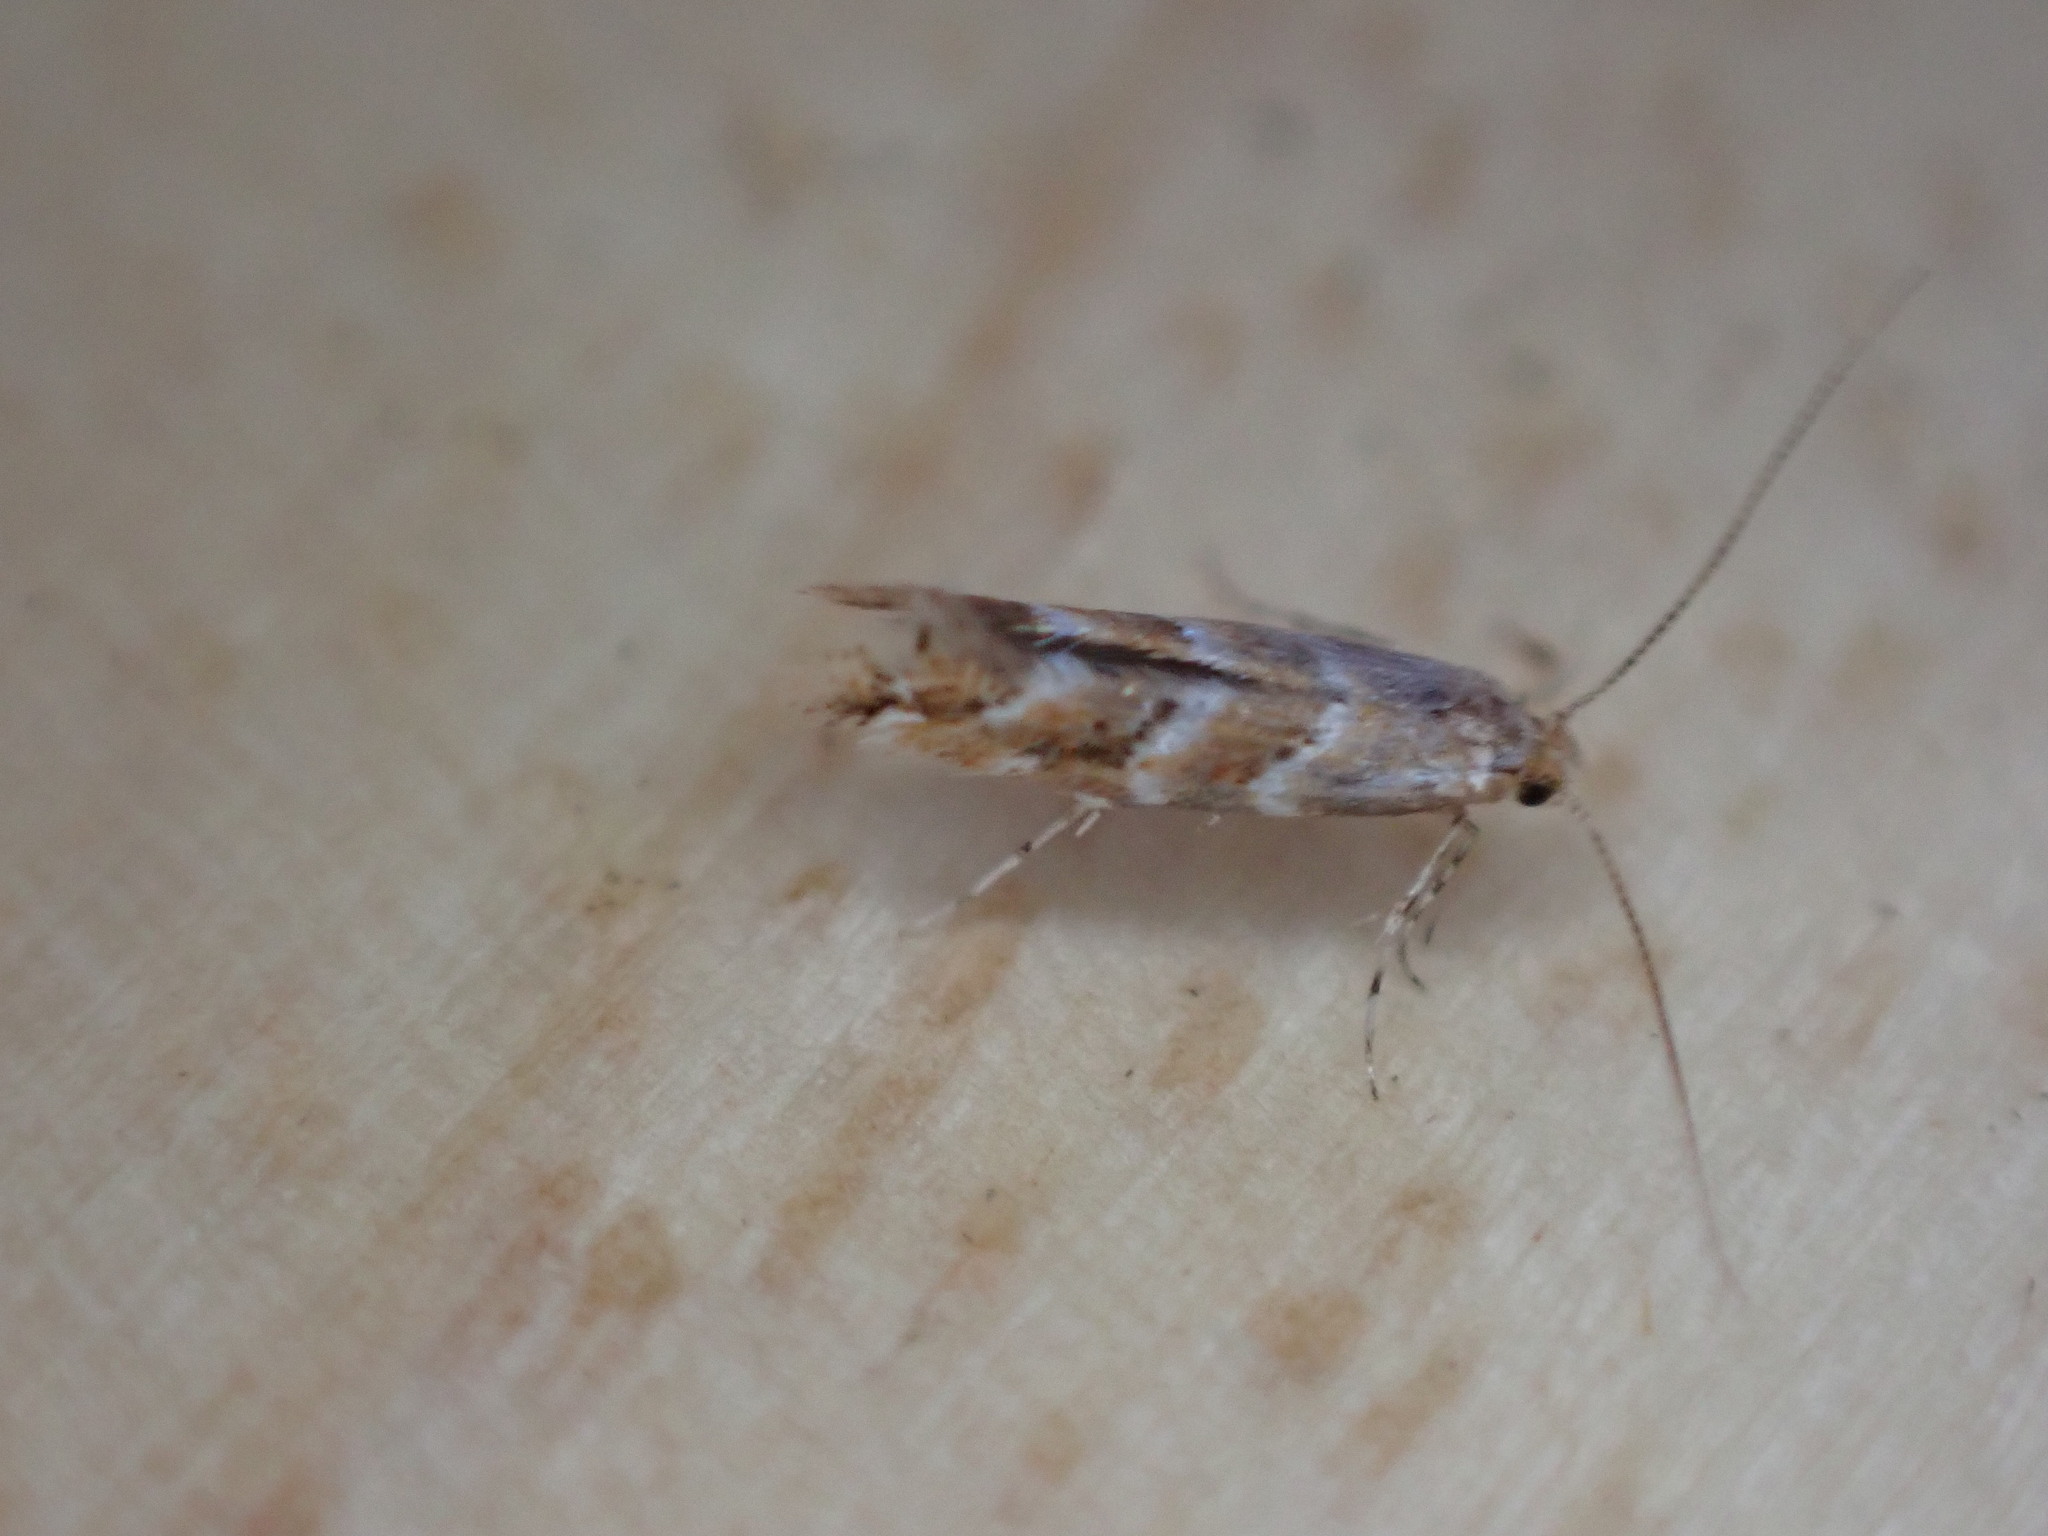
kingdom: Animalia
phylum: Arthropoda
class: Insecta
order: Lepidoptera
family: Gracillariidae
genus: Cameraria
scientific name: Cameraria ohridella
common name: Horse-chestnut leaf-miner
